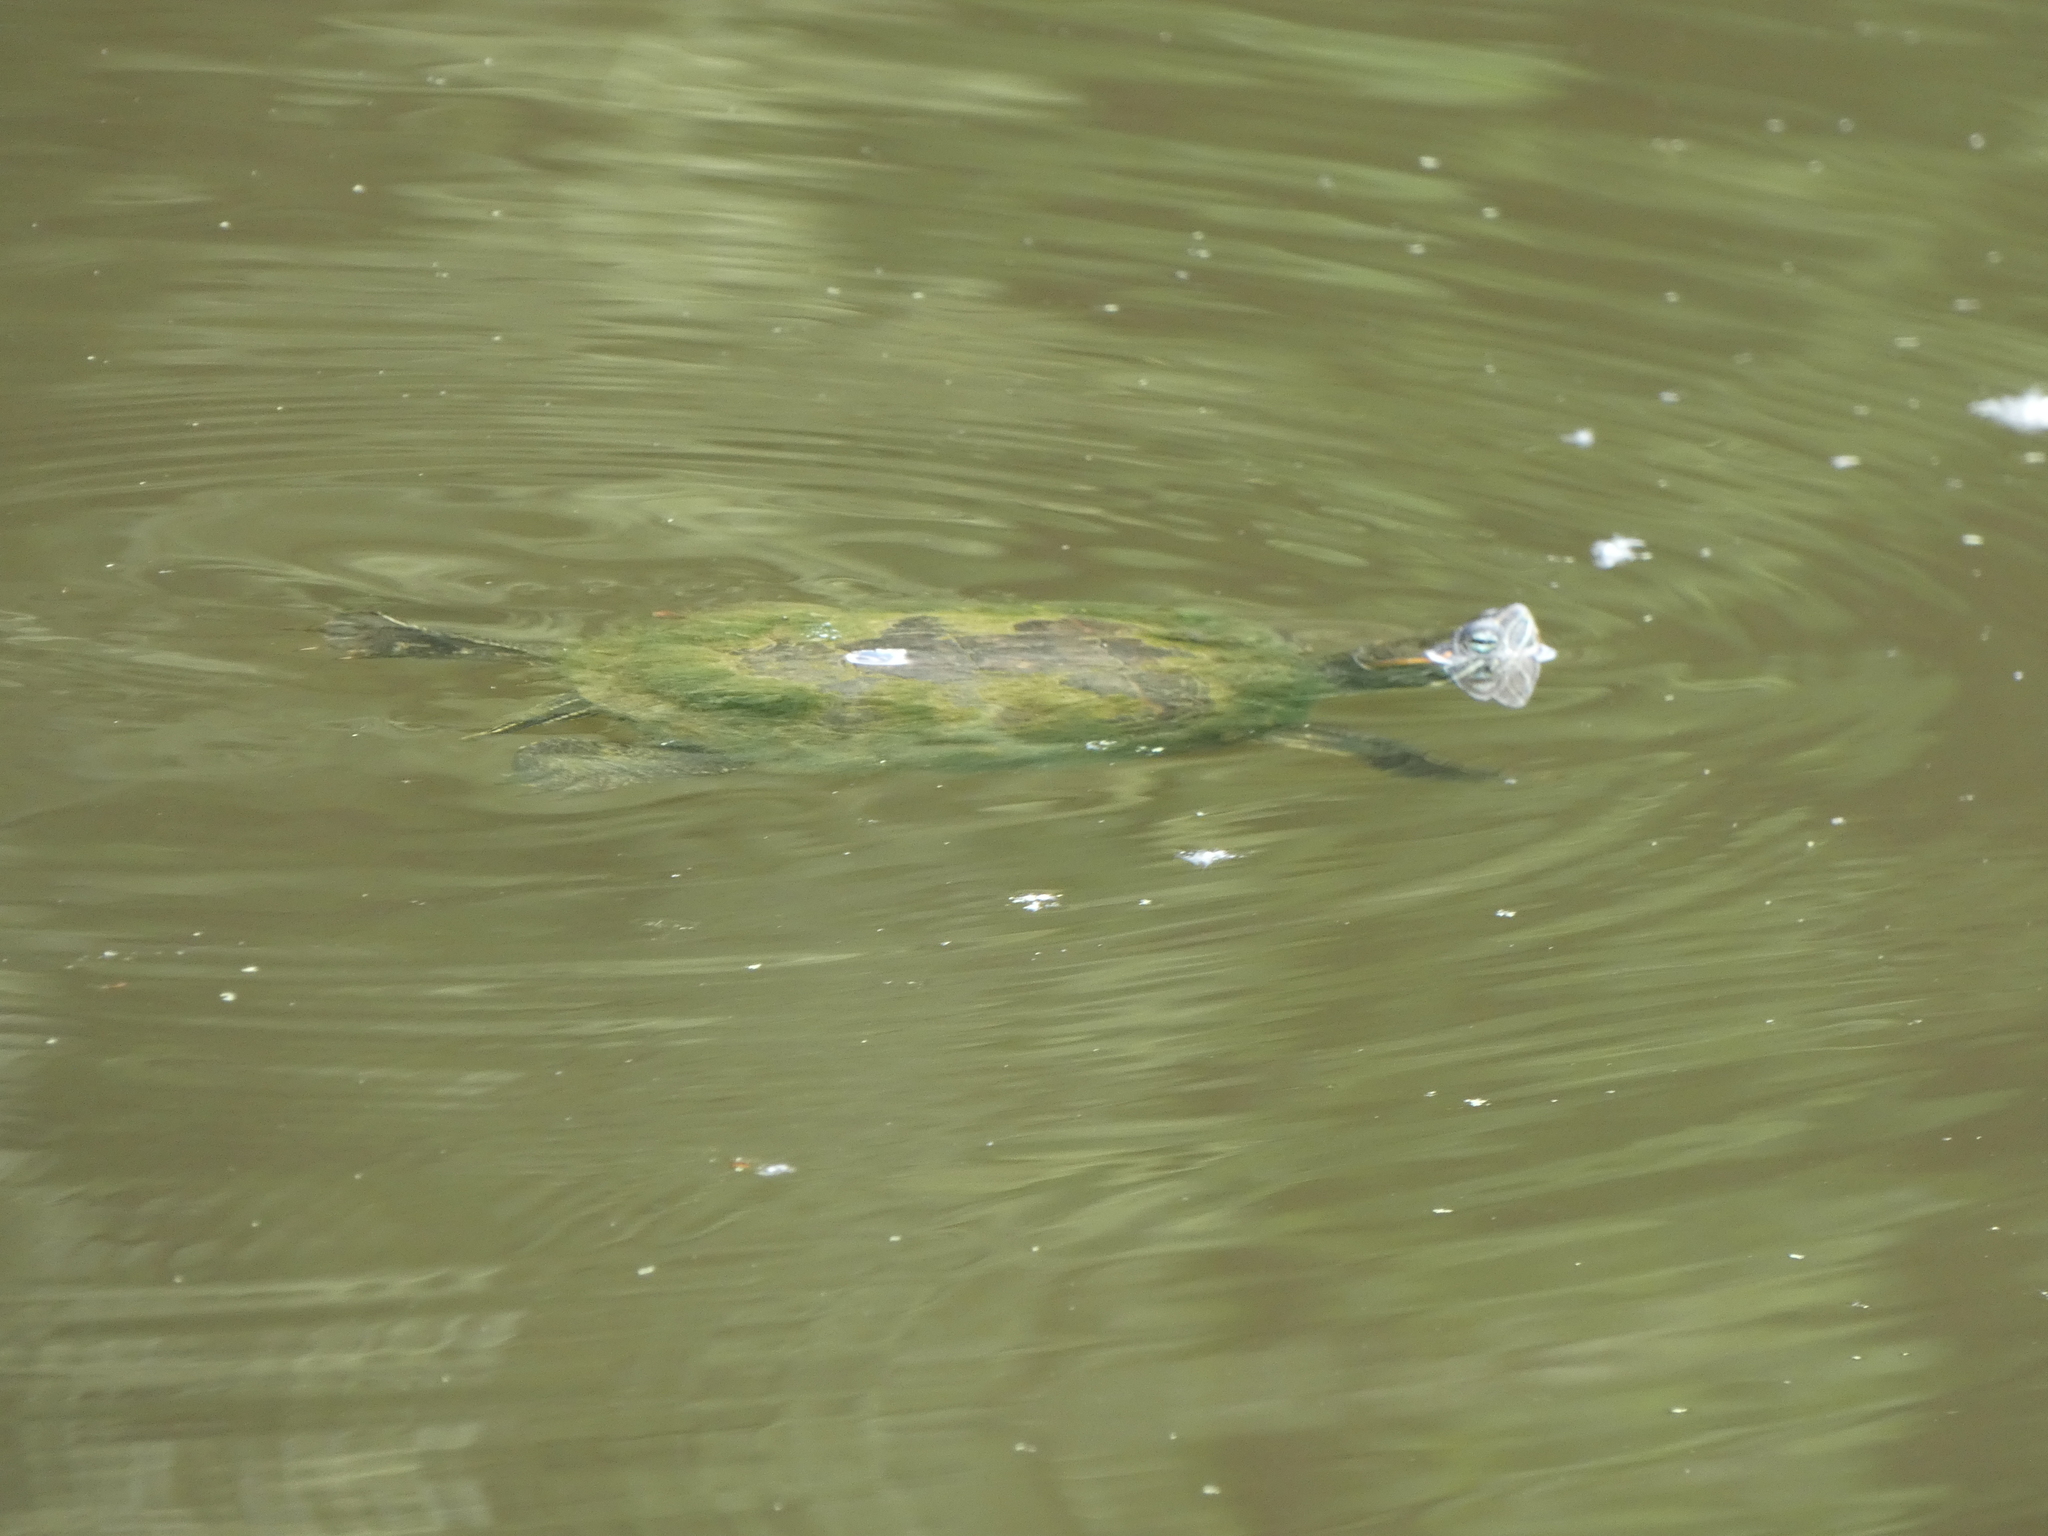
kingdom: Animalia
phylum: Chordata
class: Testudines
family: Emydidae
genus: Trachemys
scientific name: Trachemys scripta
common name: Slider
